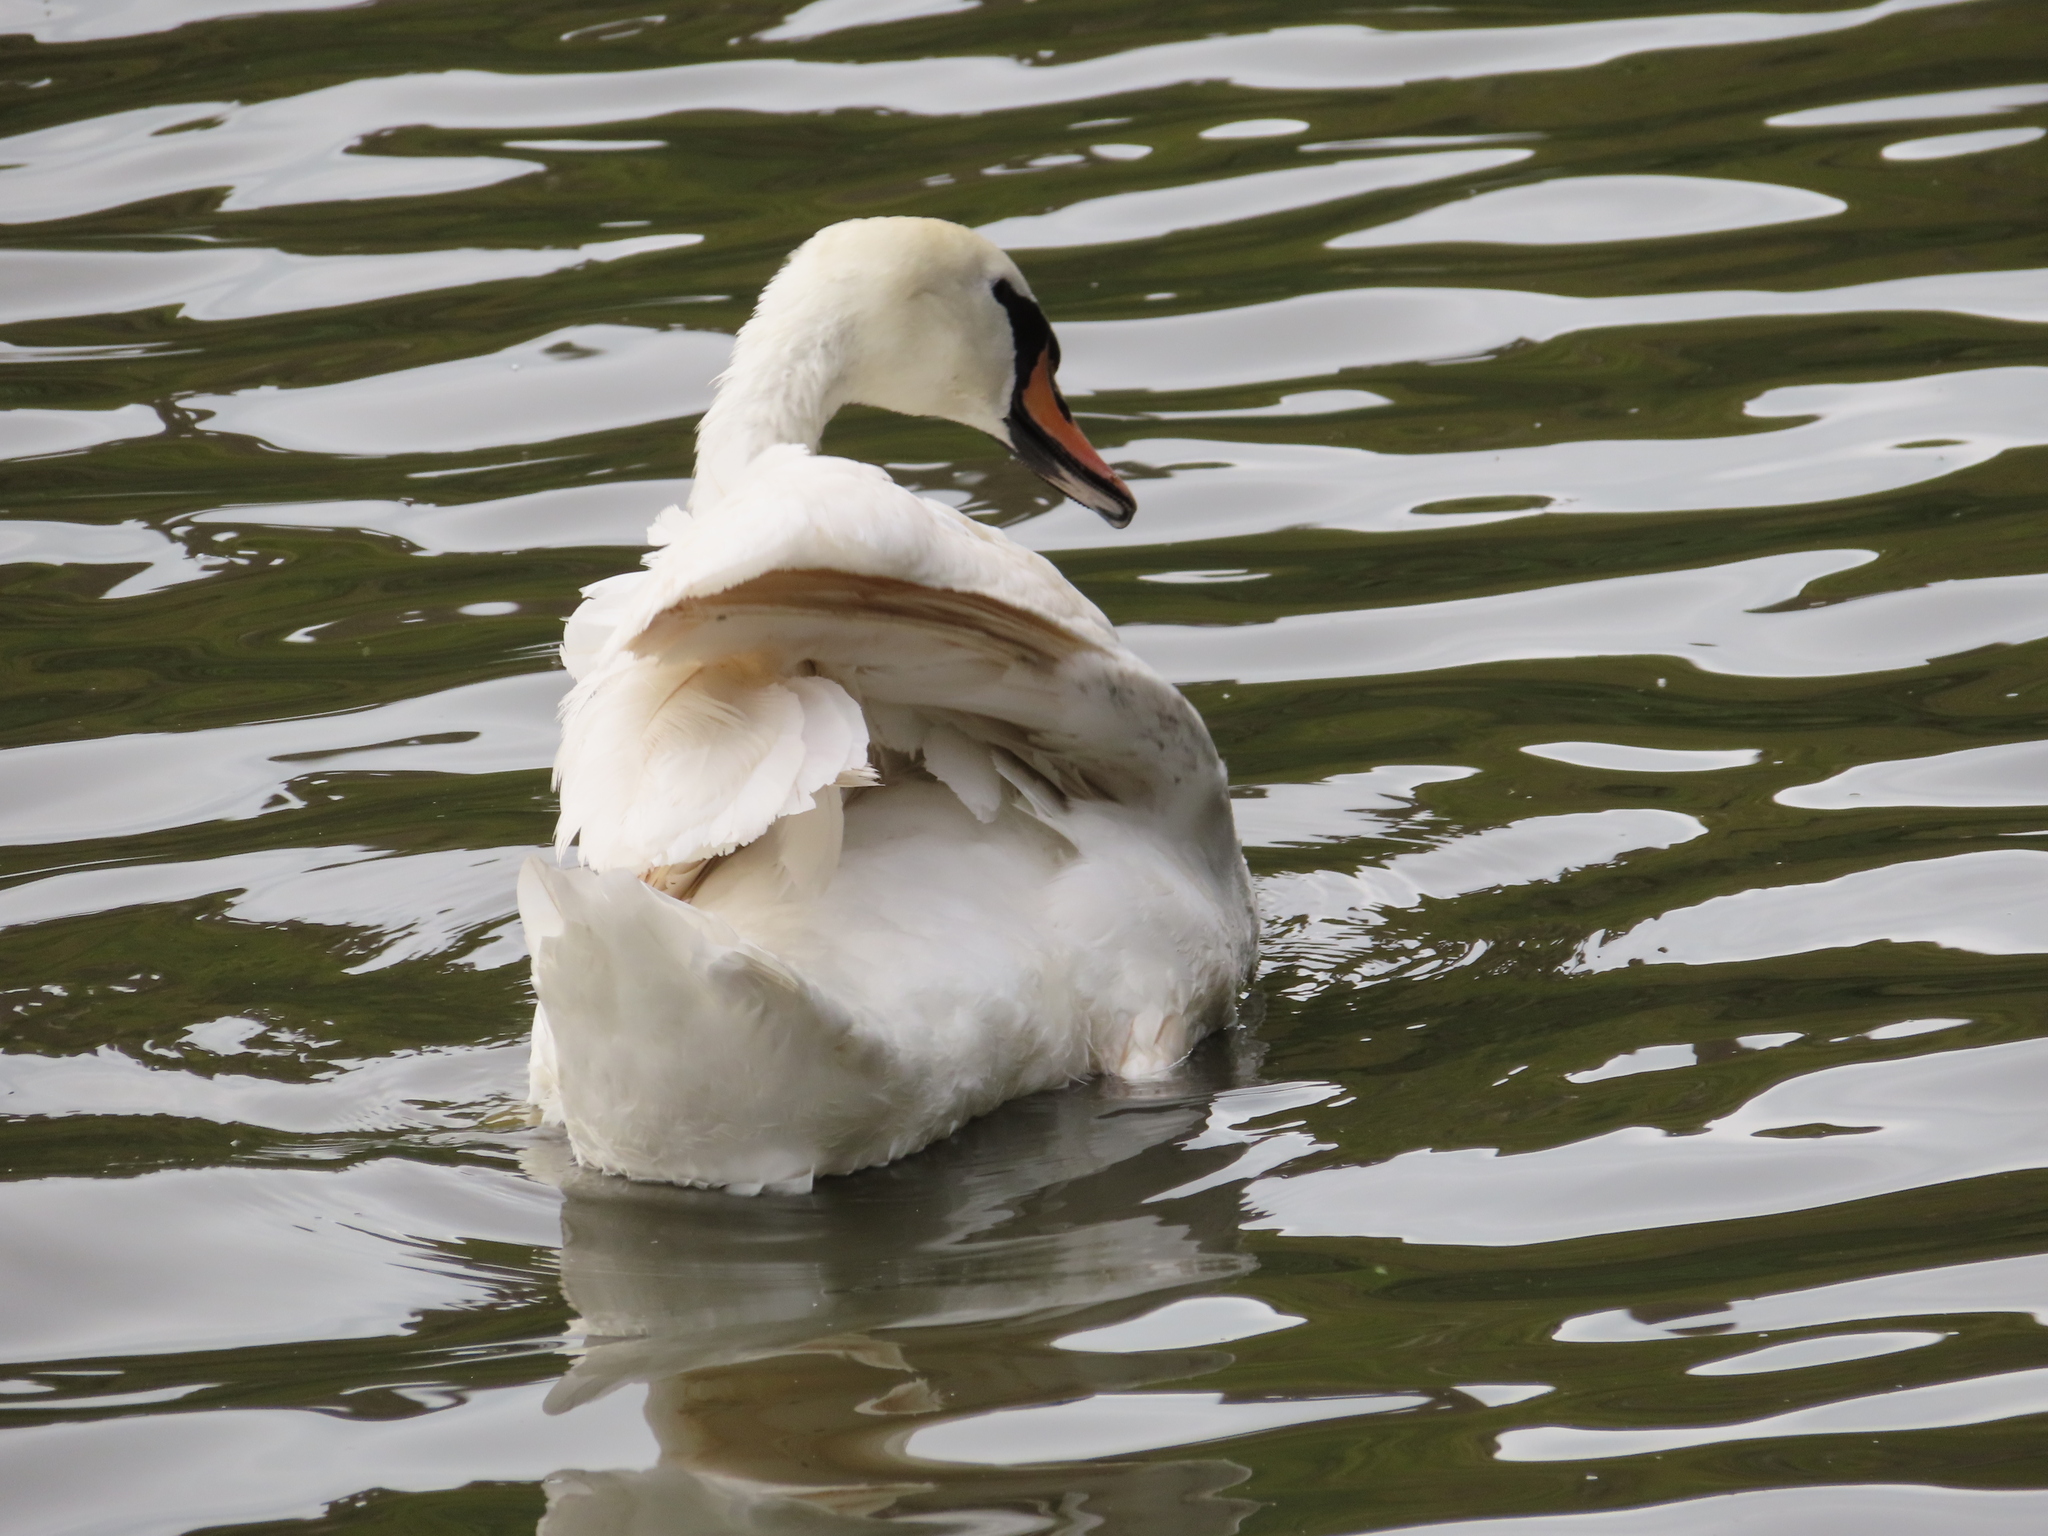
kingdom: Animalia
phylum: Chordata
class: Aves
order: Anseriformes
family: Anatidae
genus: Cygnus
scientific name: Cygnus olor
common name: Mute swan
